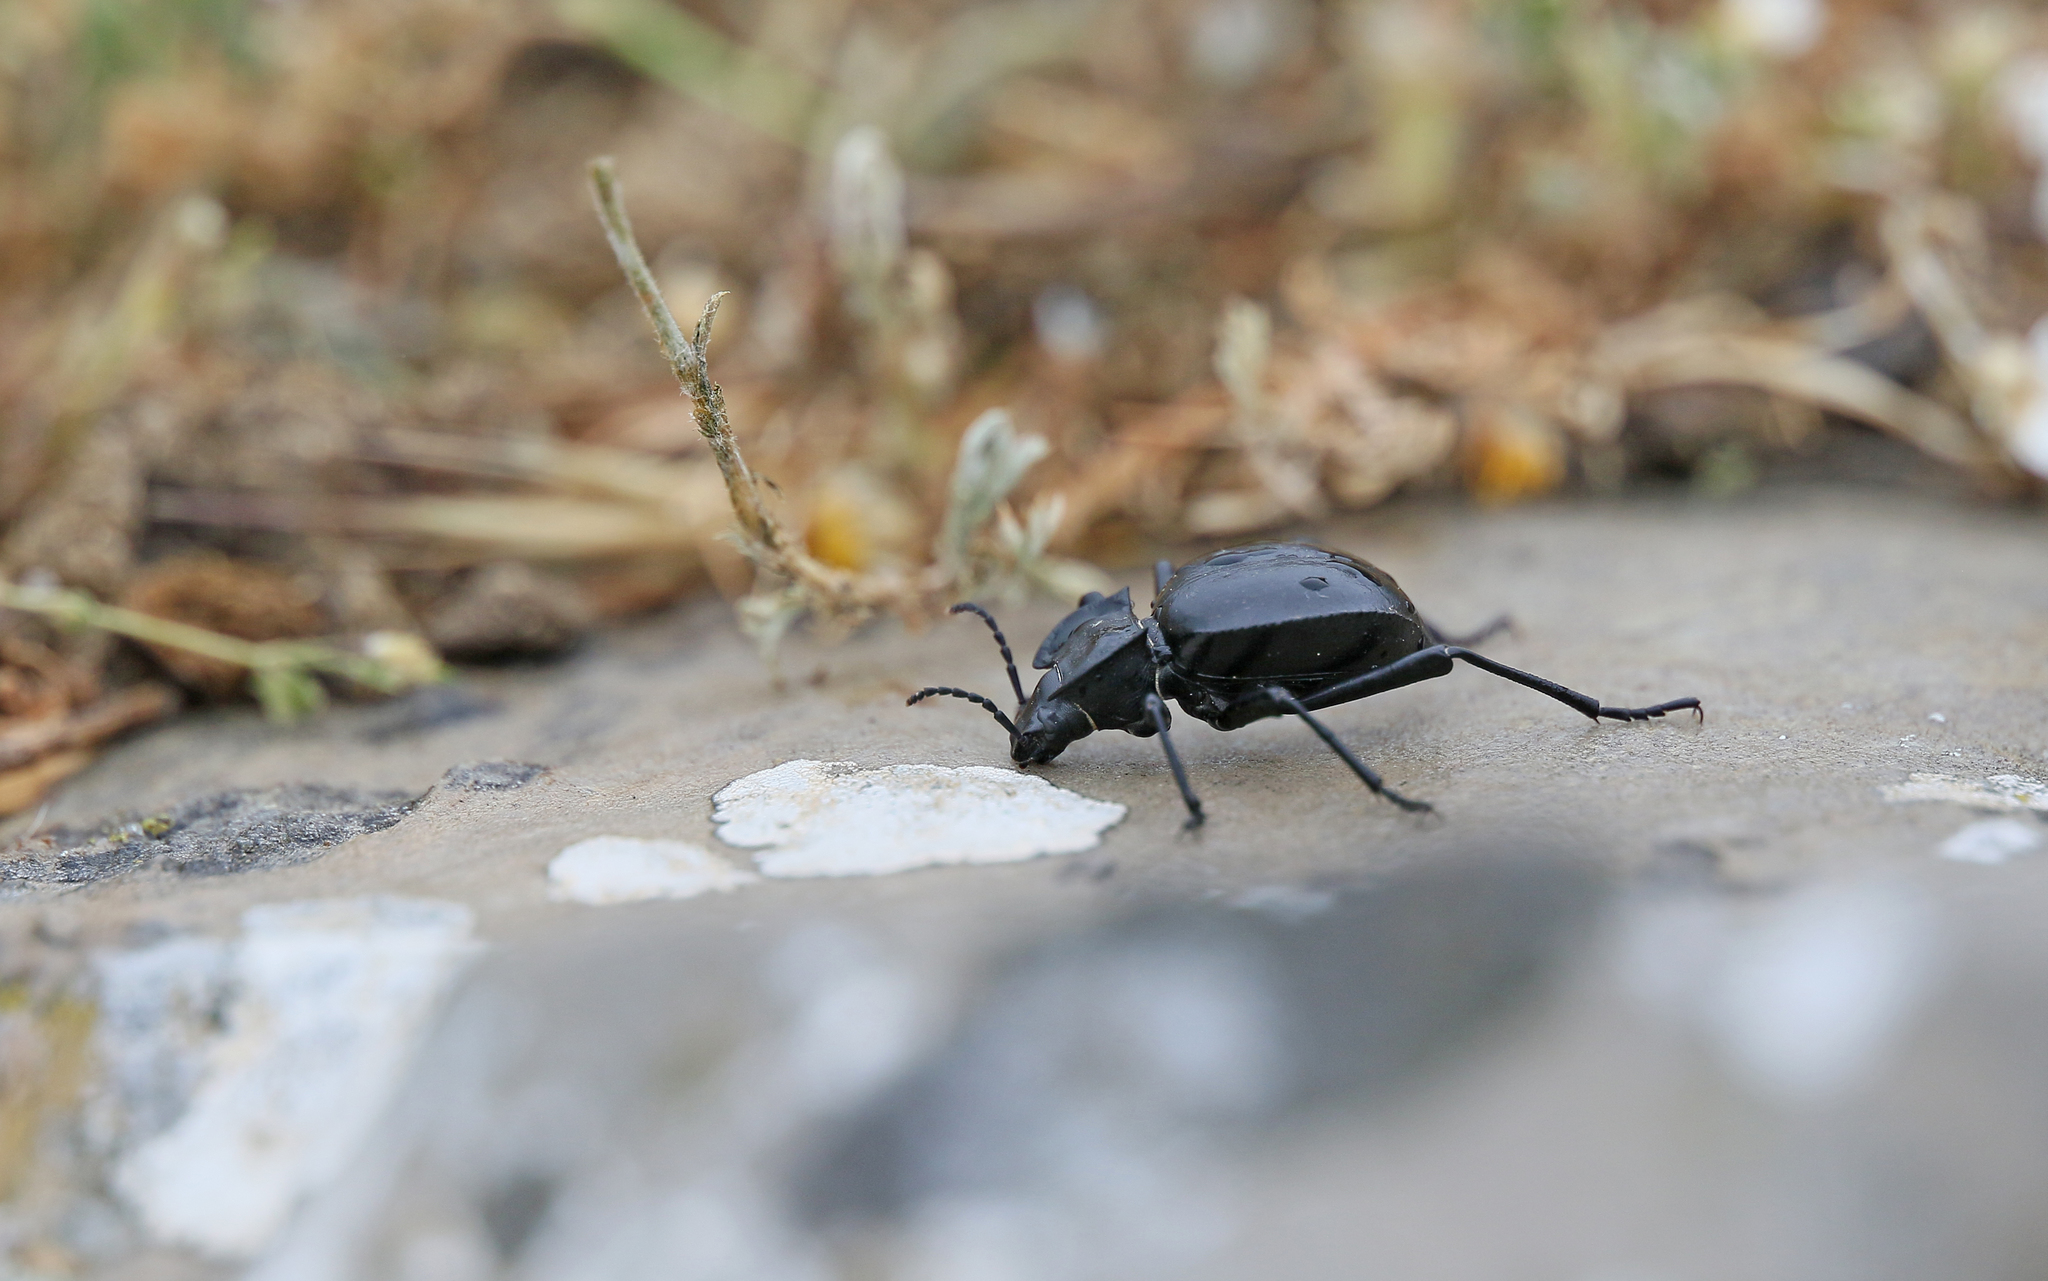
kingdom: Animalia
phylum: Arthropoda
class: Insecta
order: Coleoptera
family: Tenebrionidae
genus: Akis
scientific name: Akis acuminata
